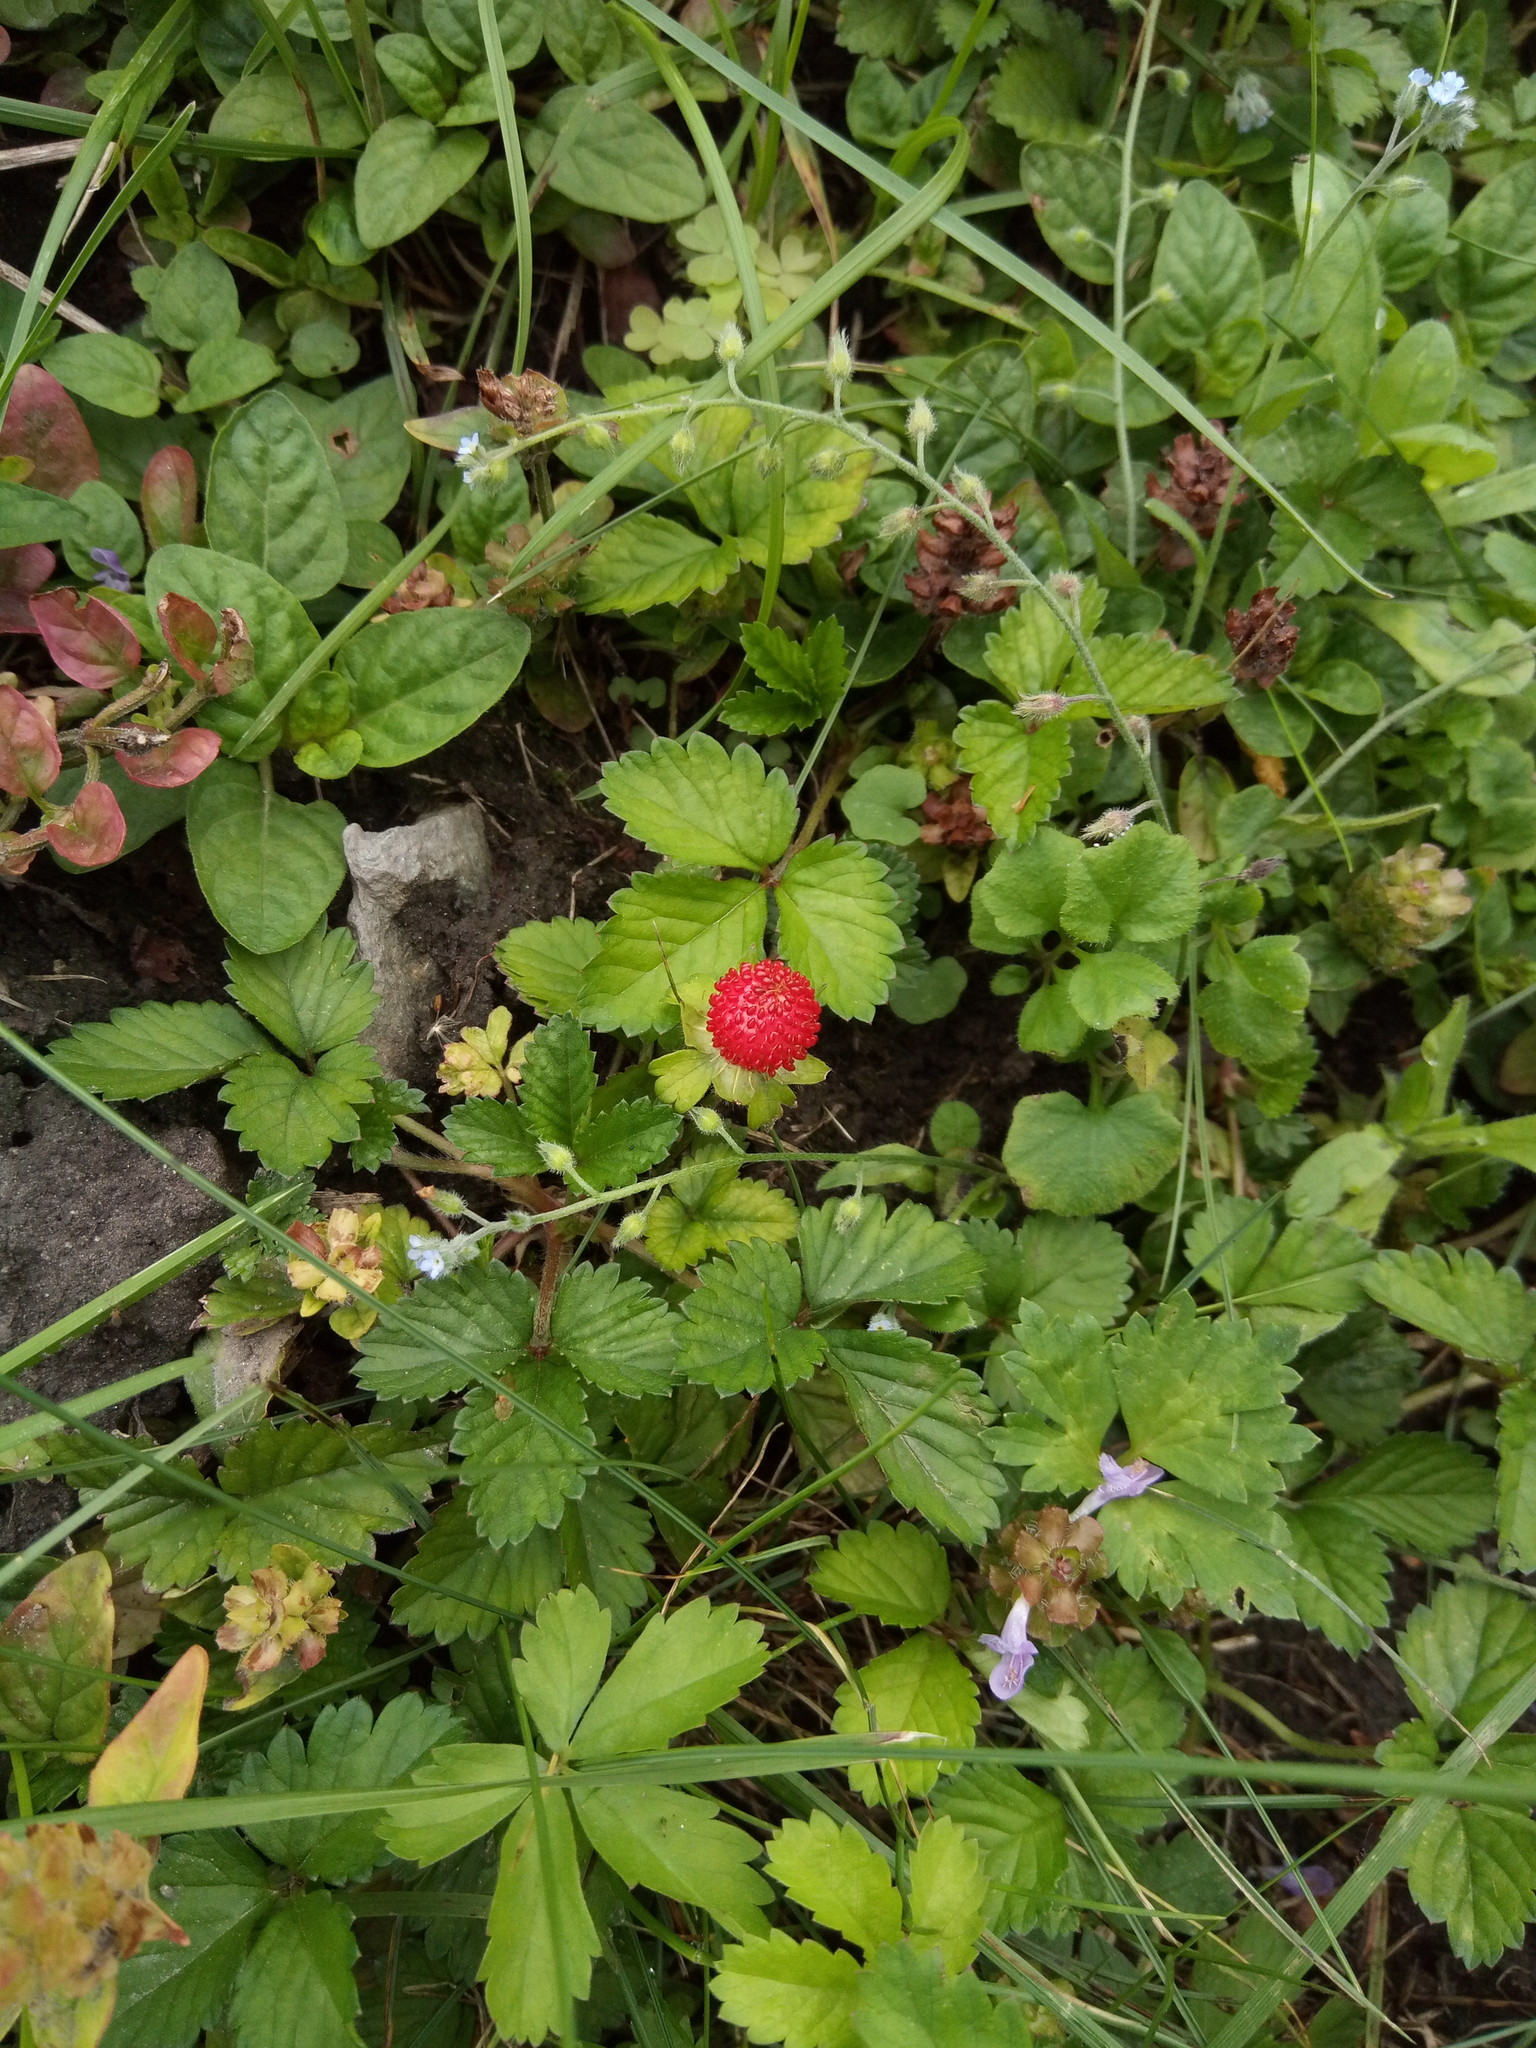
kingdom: Plantae
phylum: Tracheophyta
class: Magnoliopsida
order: Rosales
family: Rosaceae
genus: Potentilla
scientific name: Potentilla indica
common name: Yellow-flowered strawberry
